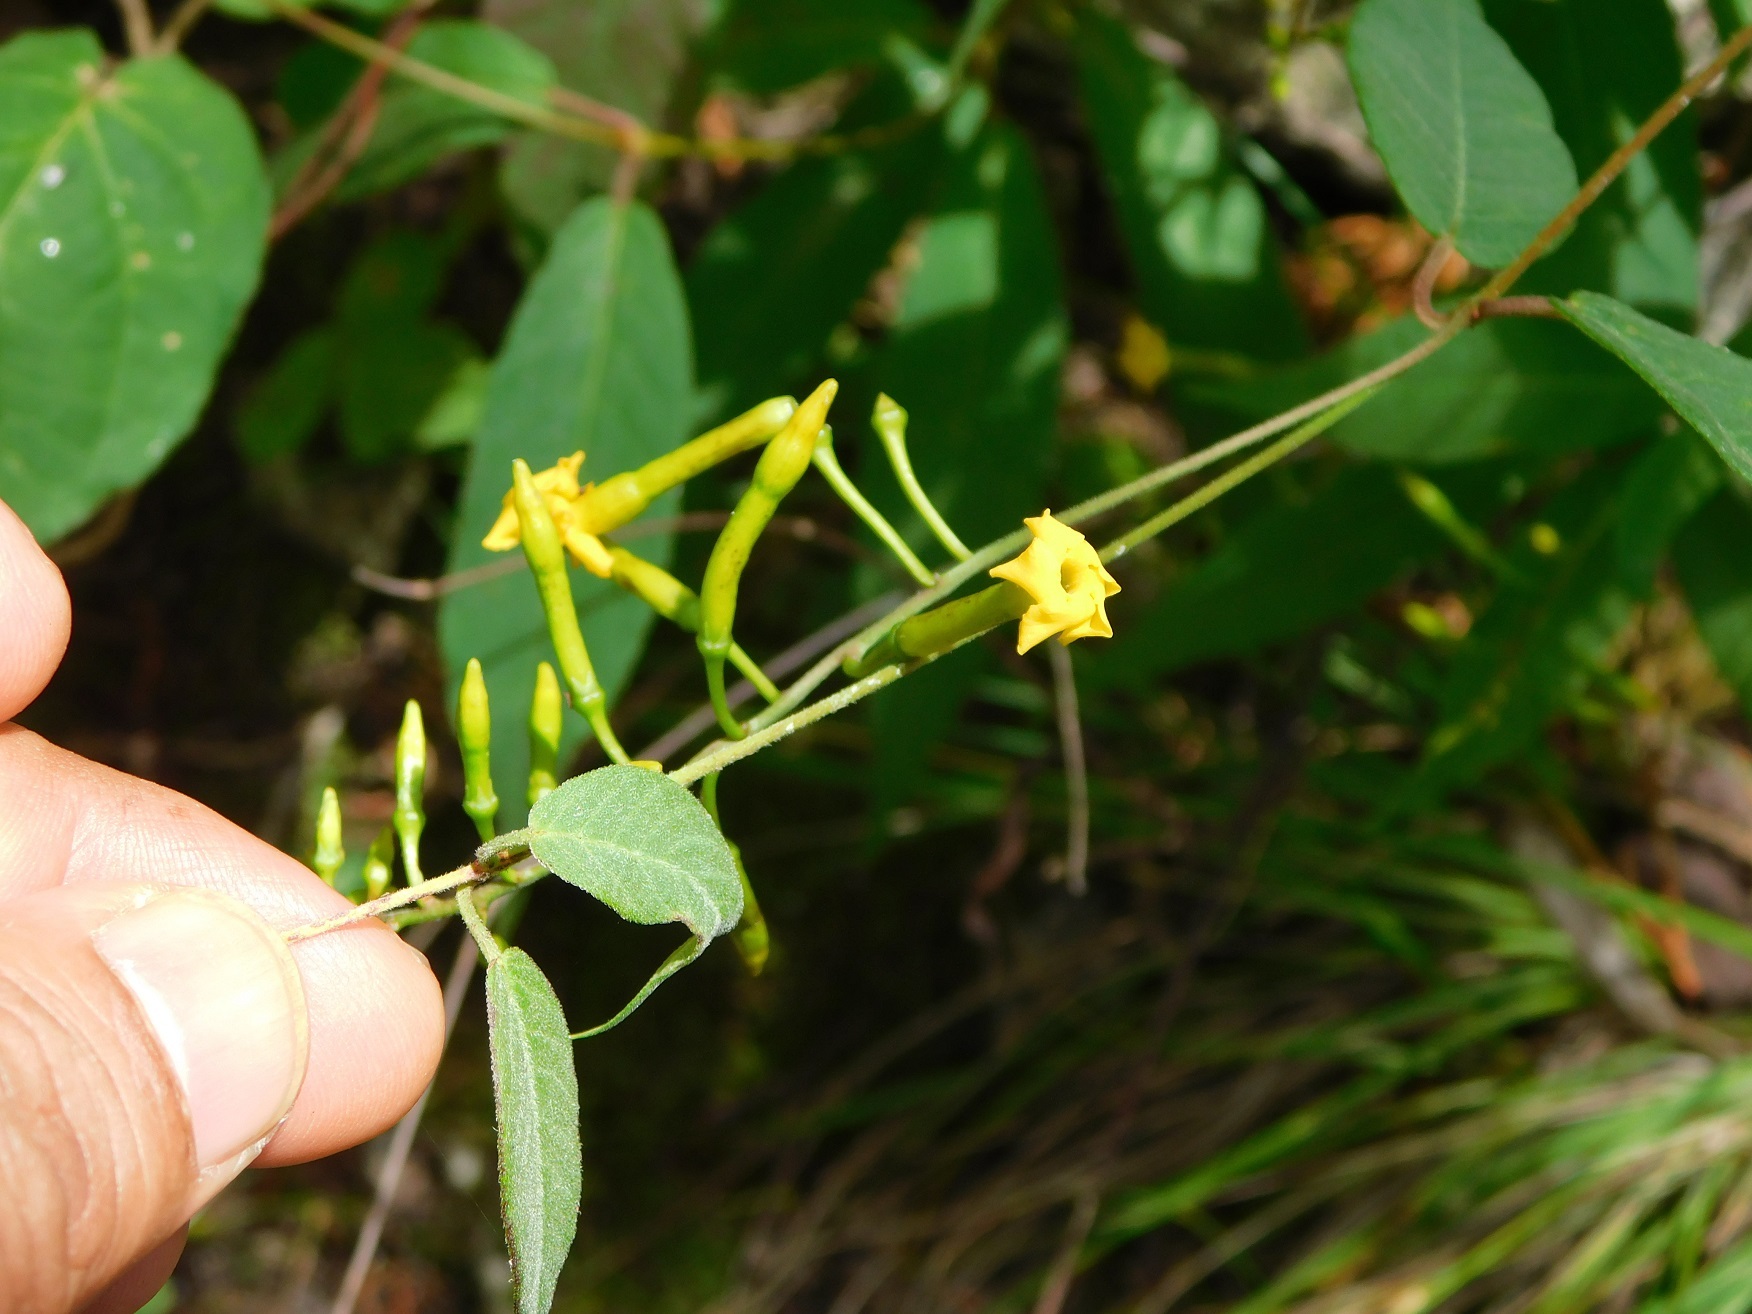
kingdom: Plantae
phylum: Tracheophyta
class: Magnoliopsida
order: Gentianales
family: Apocynaceae
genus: Mandevilla
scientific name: Mandevilla tubiflora
